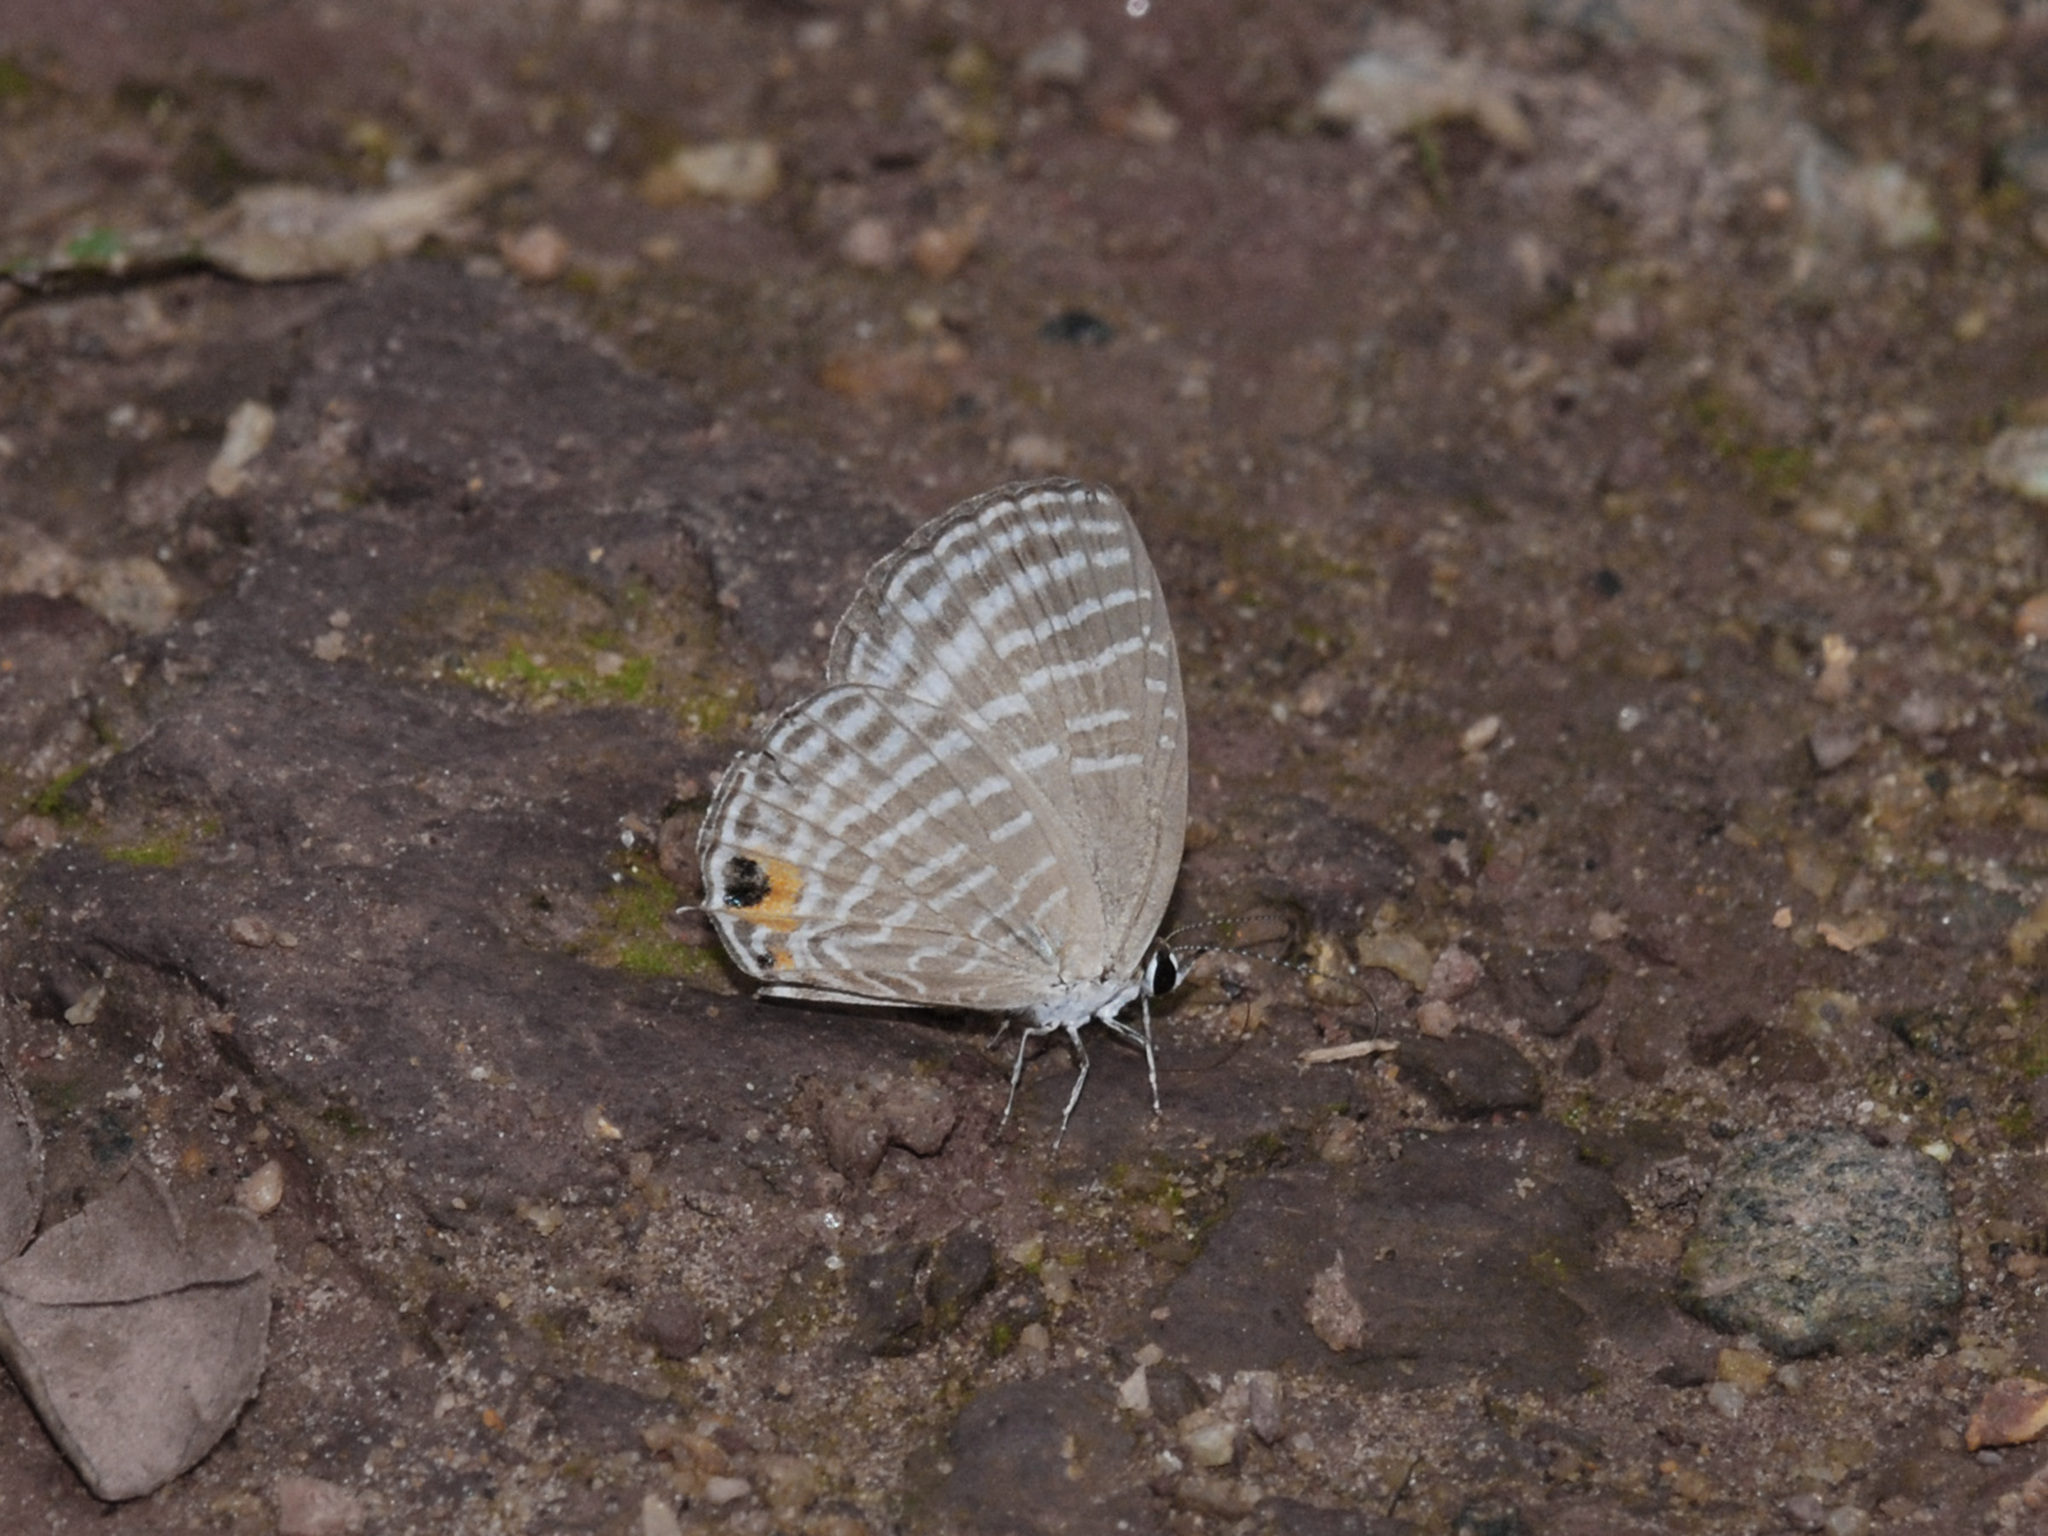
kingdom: Animalia
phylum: Arthropoda
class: Insecta
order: Lepidoptera
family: Lycaenidae
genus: Jamides
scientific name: Jamides celeno
